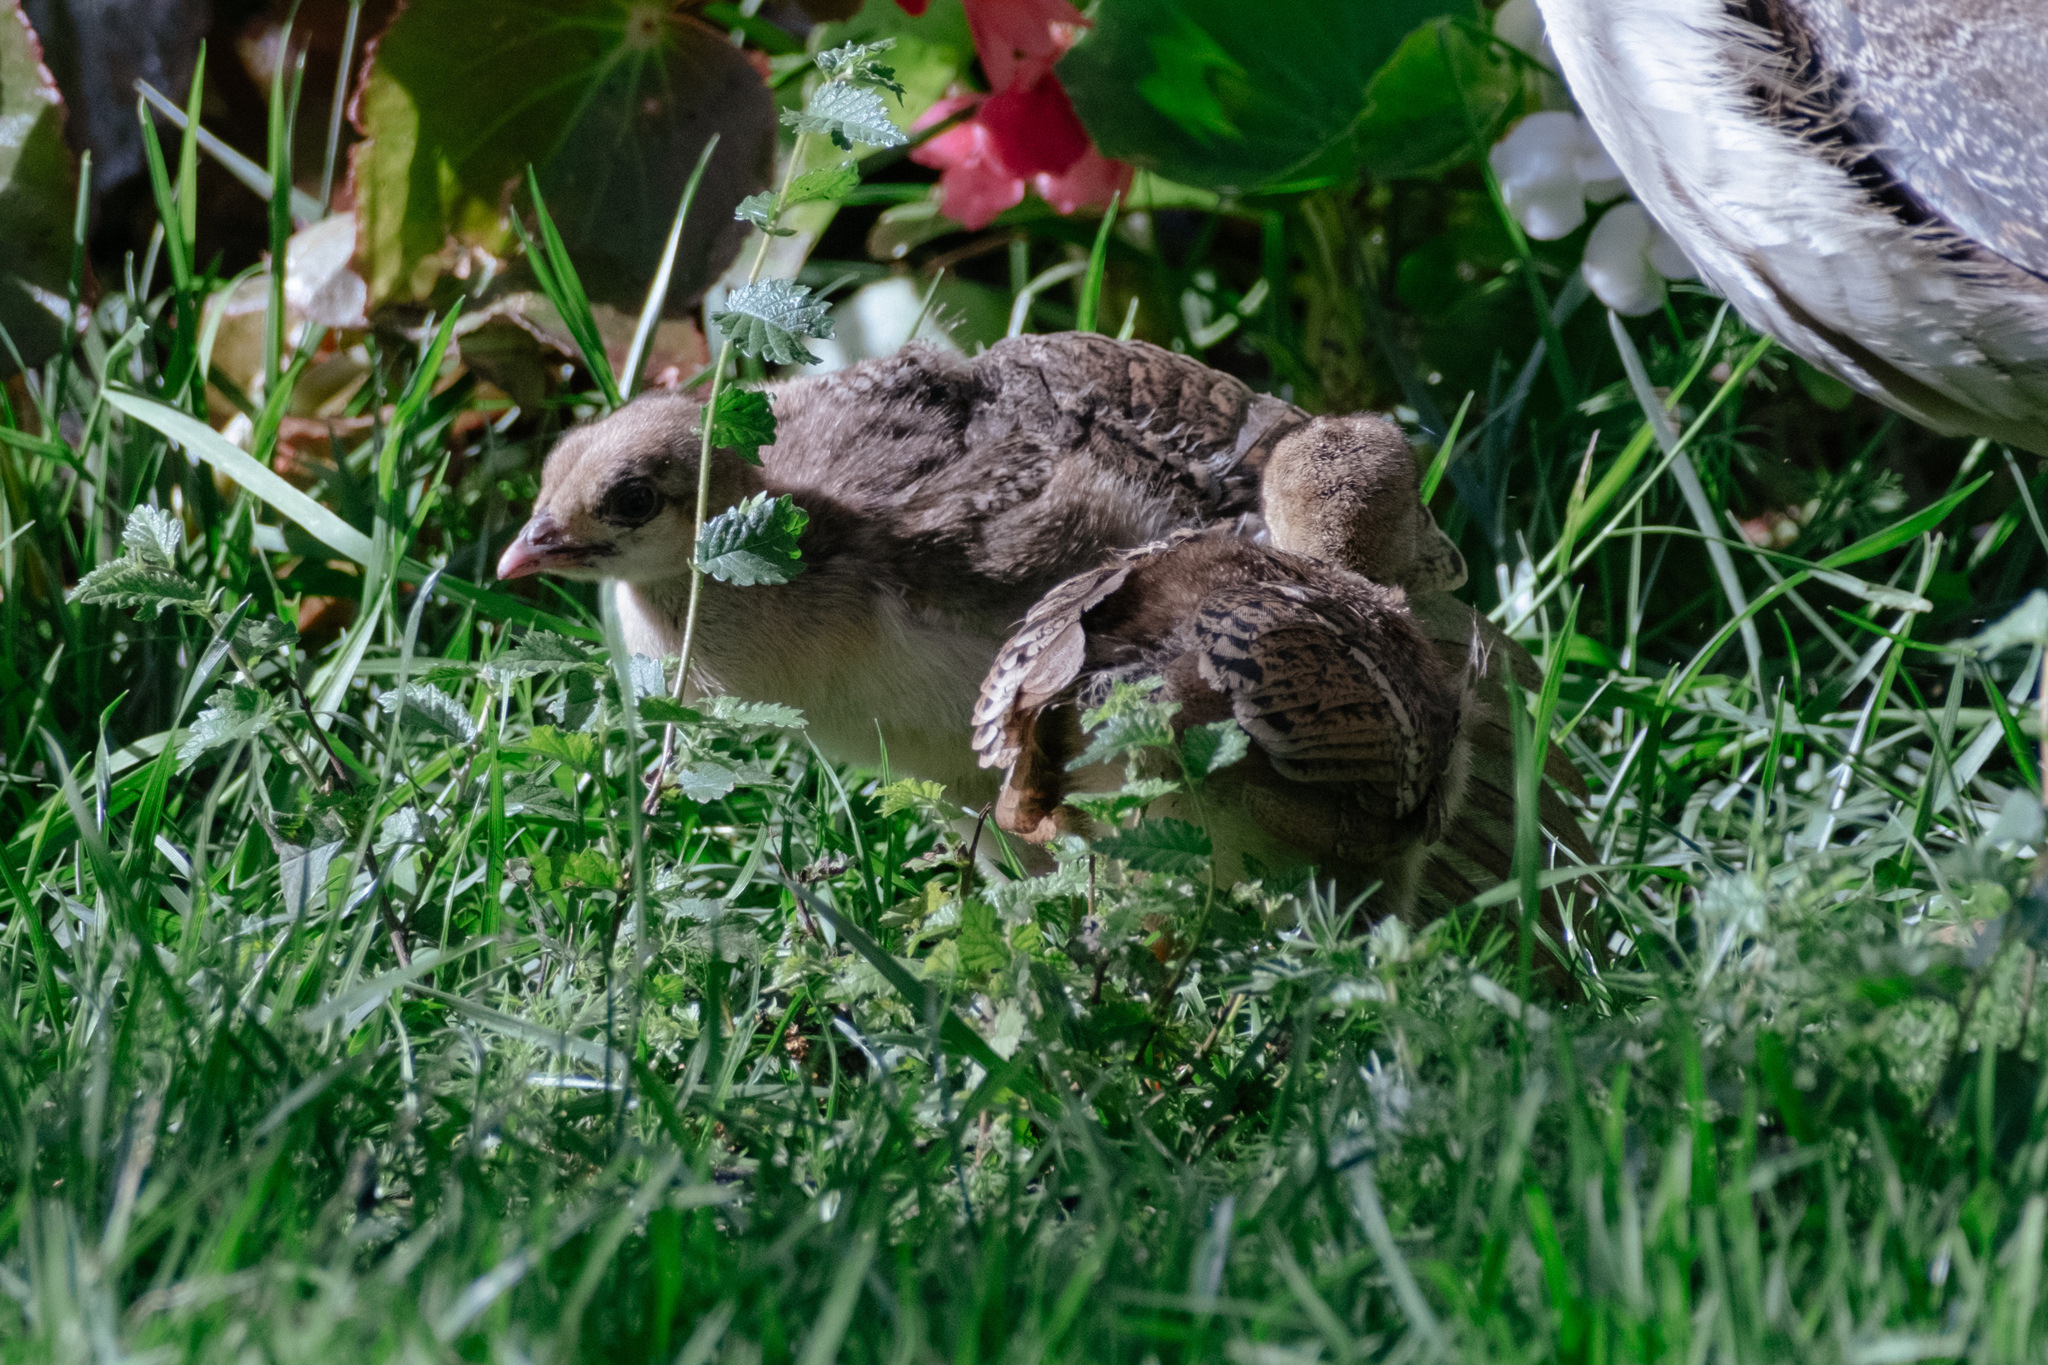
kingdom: Animalia
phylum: Chordata
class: Aves
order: Galliformes
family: Phasianidae
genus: Pavo
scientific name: Pavo cristatus
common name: Indian peafowl
